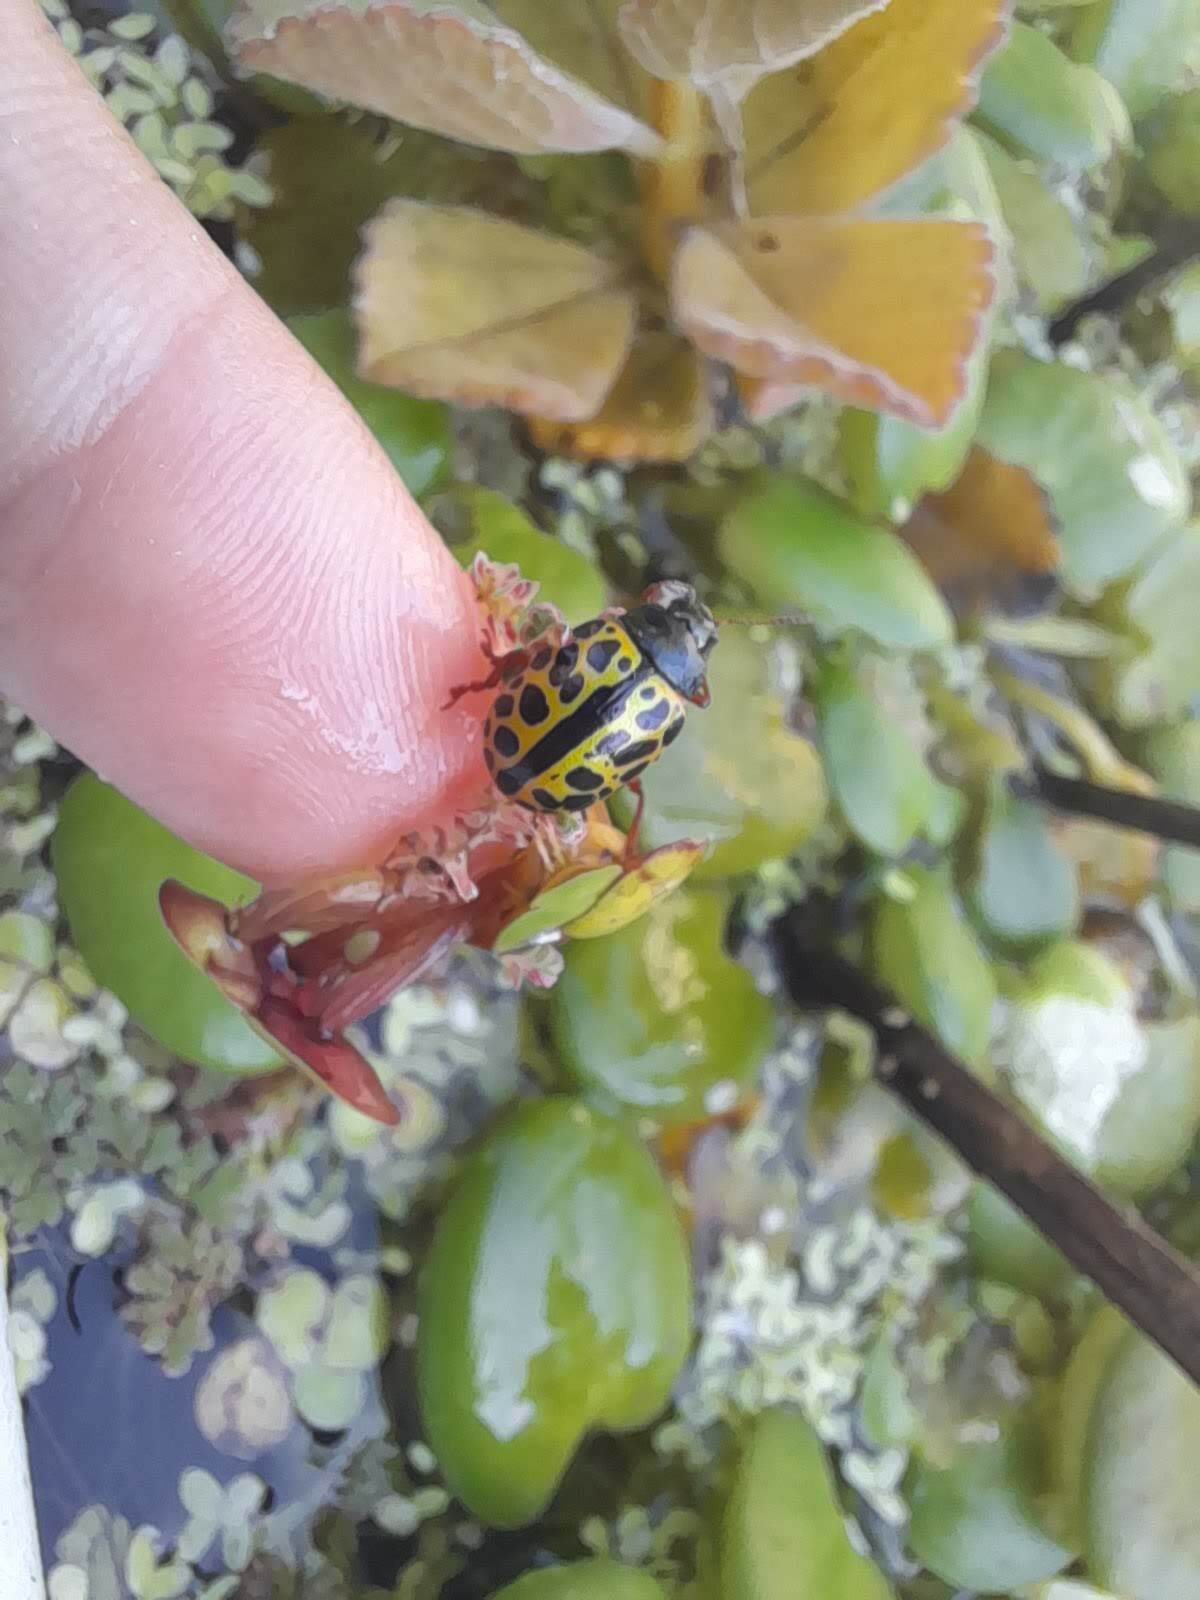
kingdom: Animalia
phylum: Arthropoda
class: Insecta
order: Coleoptera
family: Chrysomelidae
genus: Calligrapha
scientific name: Calligrapha polyspila
